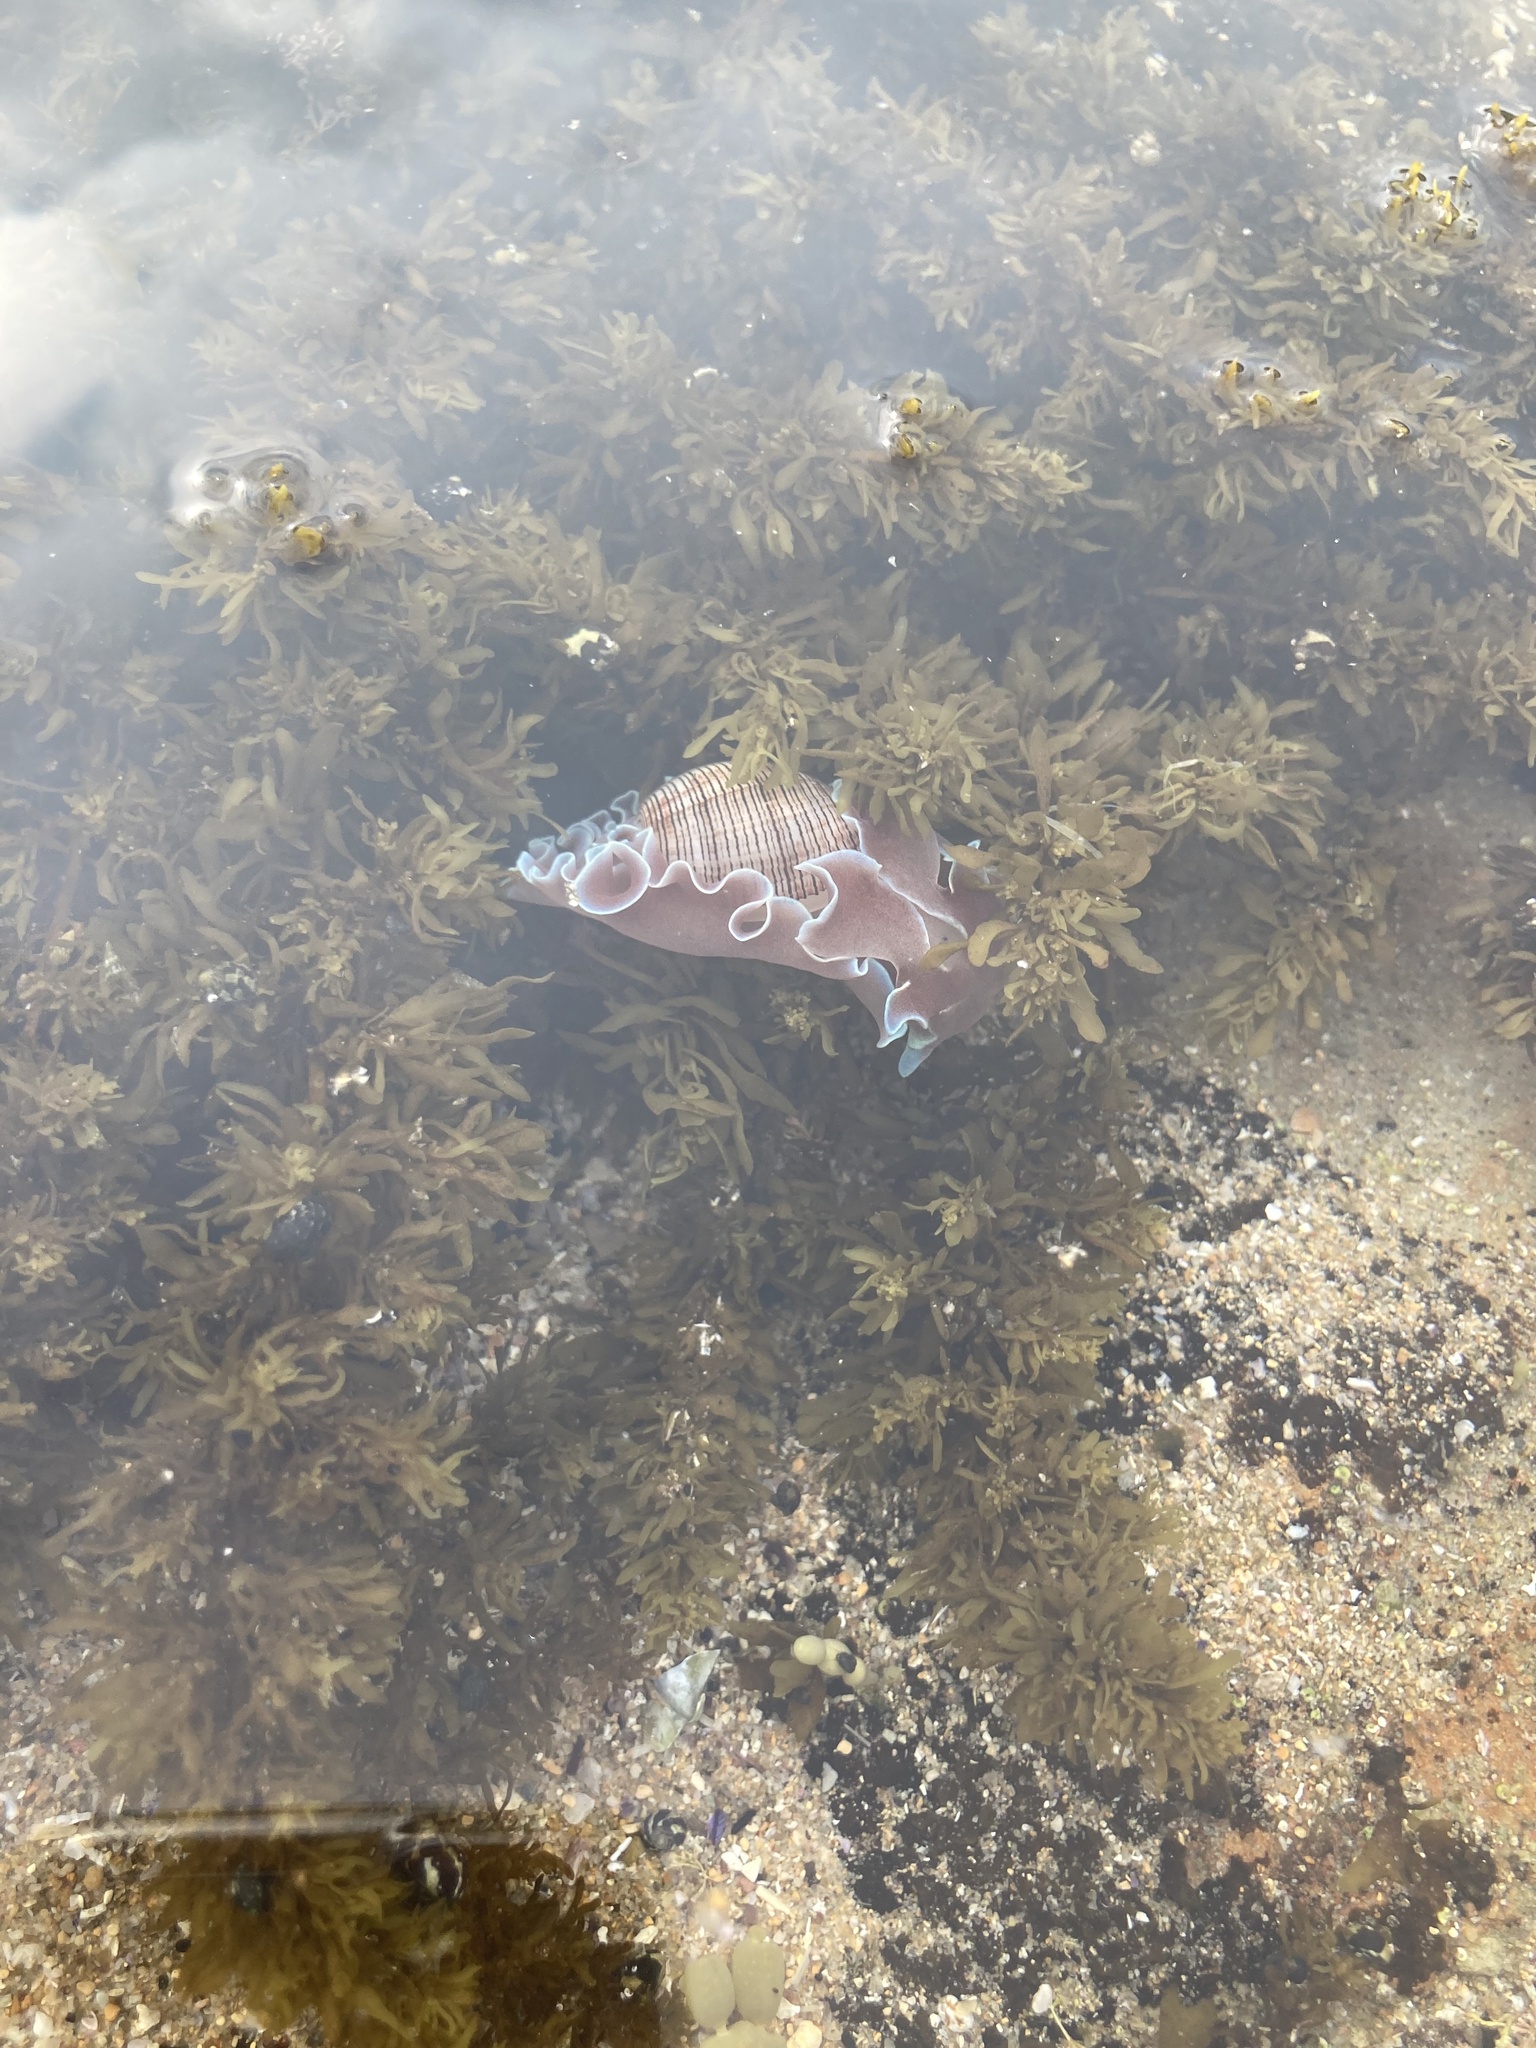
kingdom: Animalia
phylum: Mollusca
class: Gastropoda
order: Cephalaspidea
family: Aplustridae
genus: Hydatina
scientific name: Hydatina physis
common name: Brown-line paperbubble
